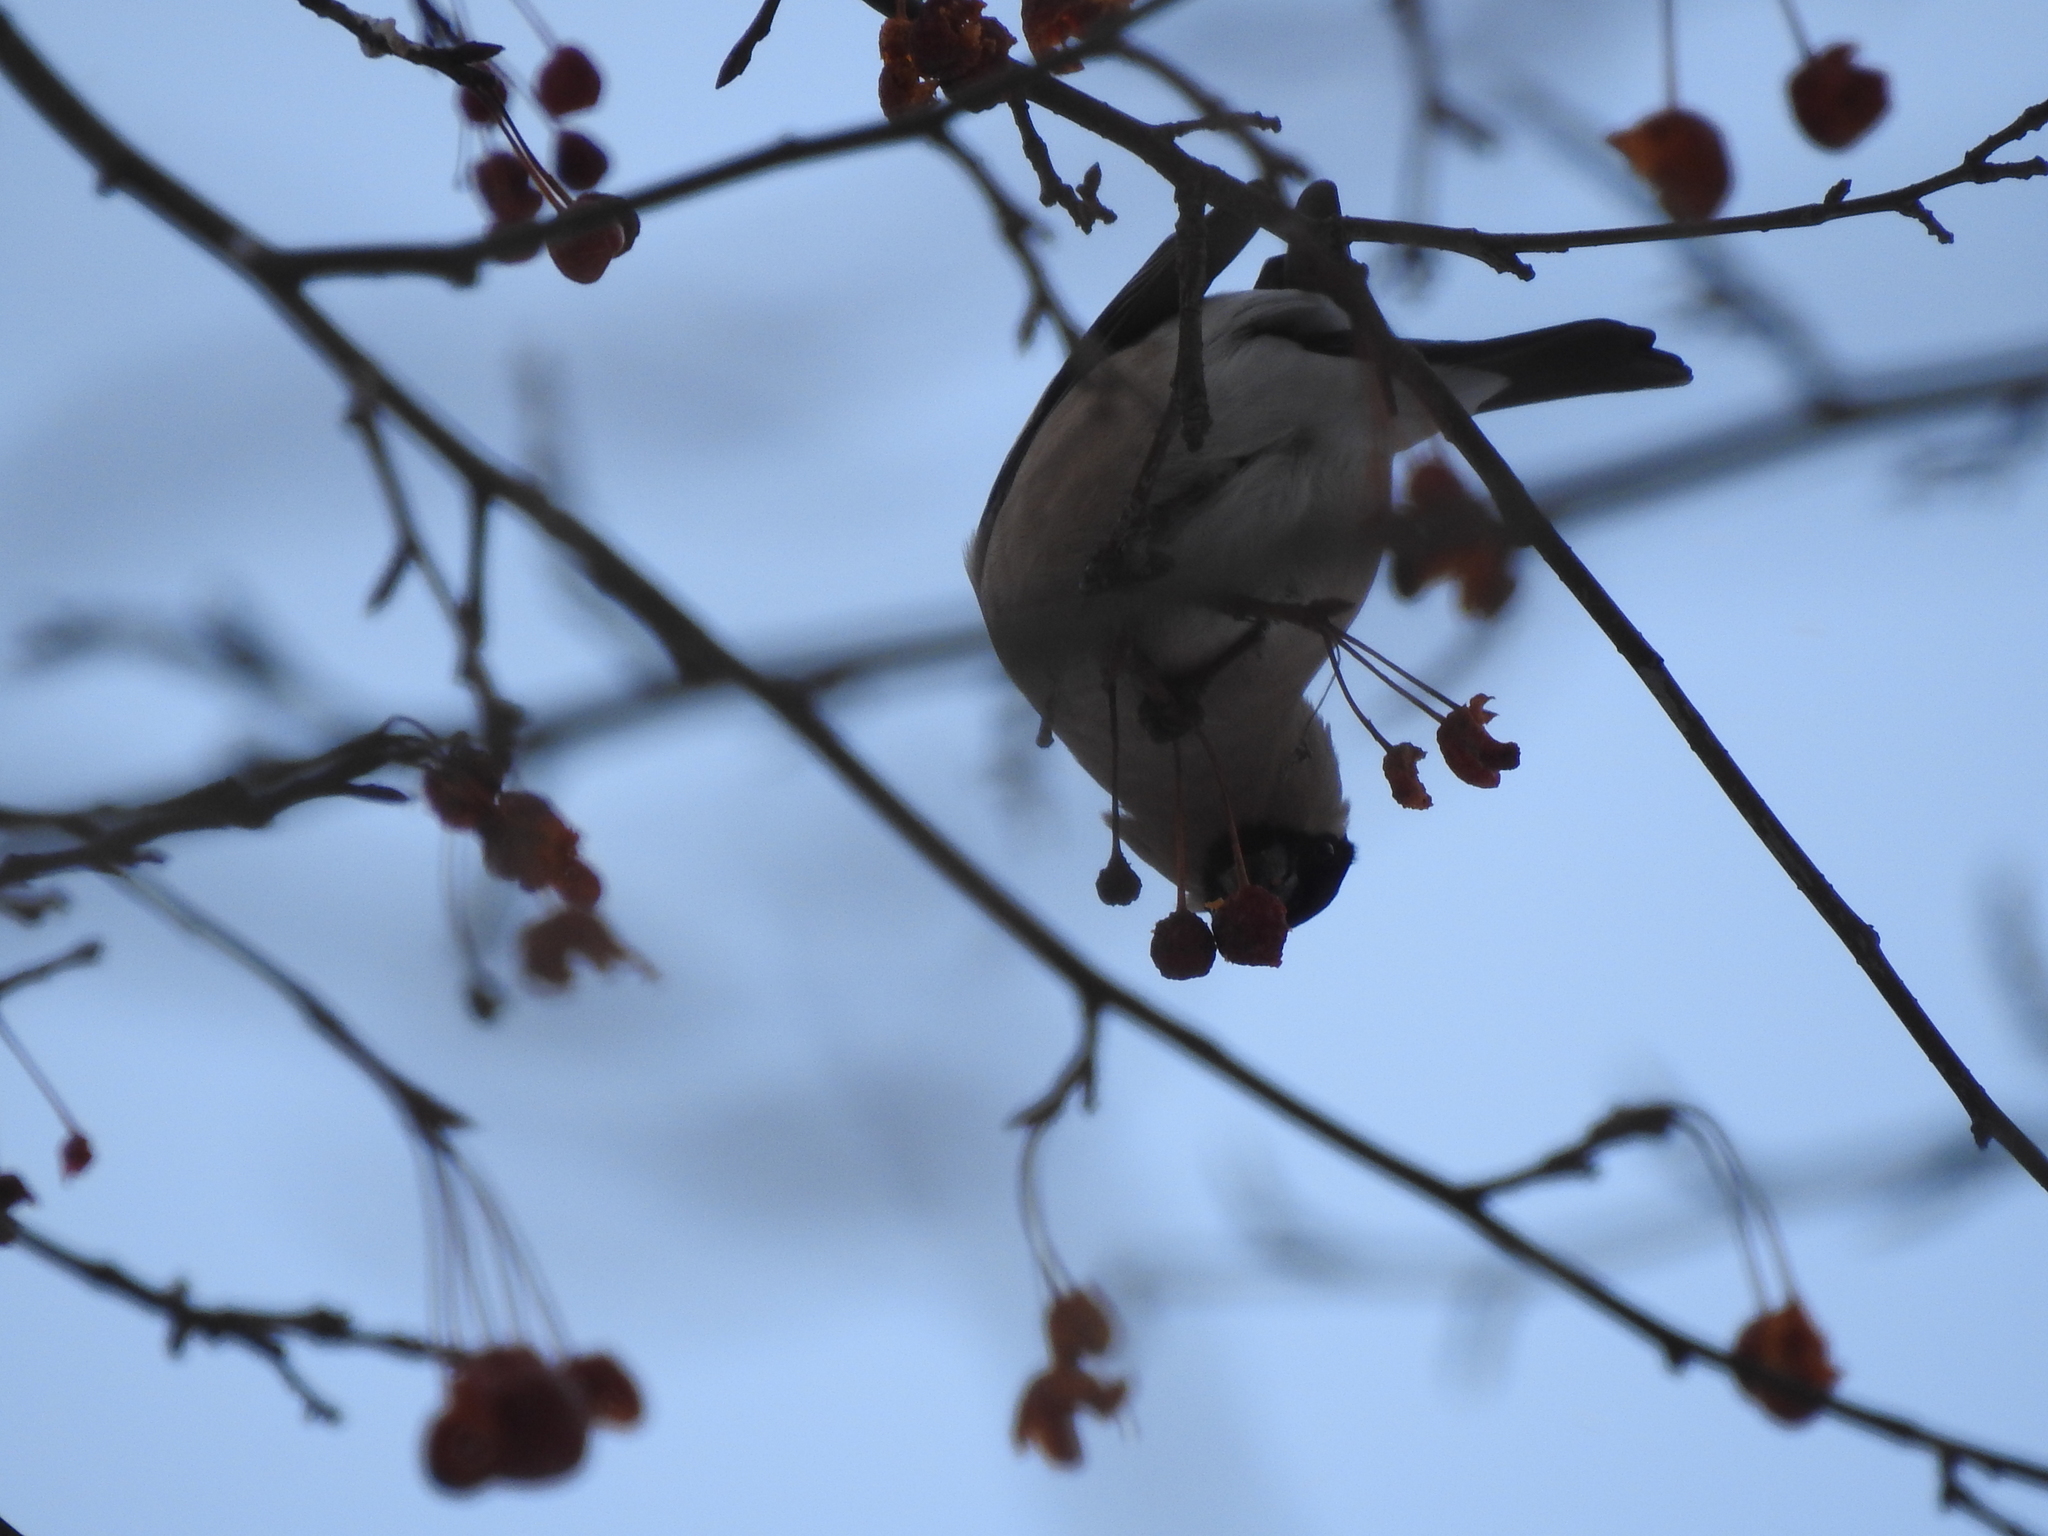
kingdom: Animalia
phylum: Chordata
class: Aves
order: Passeriformes
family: Fringillidae
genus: Pyrrhula
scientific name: Pyrrhula pyrrhula
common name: Eurasian bullfinch
